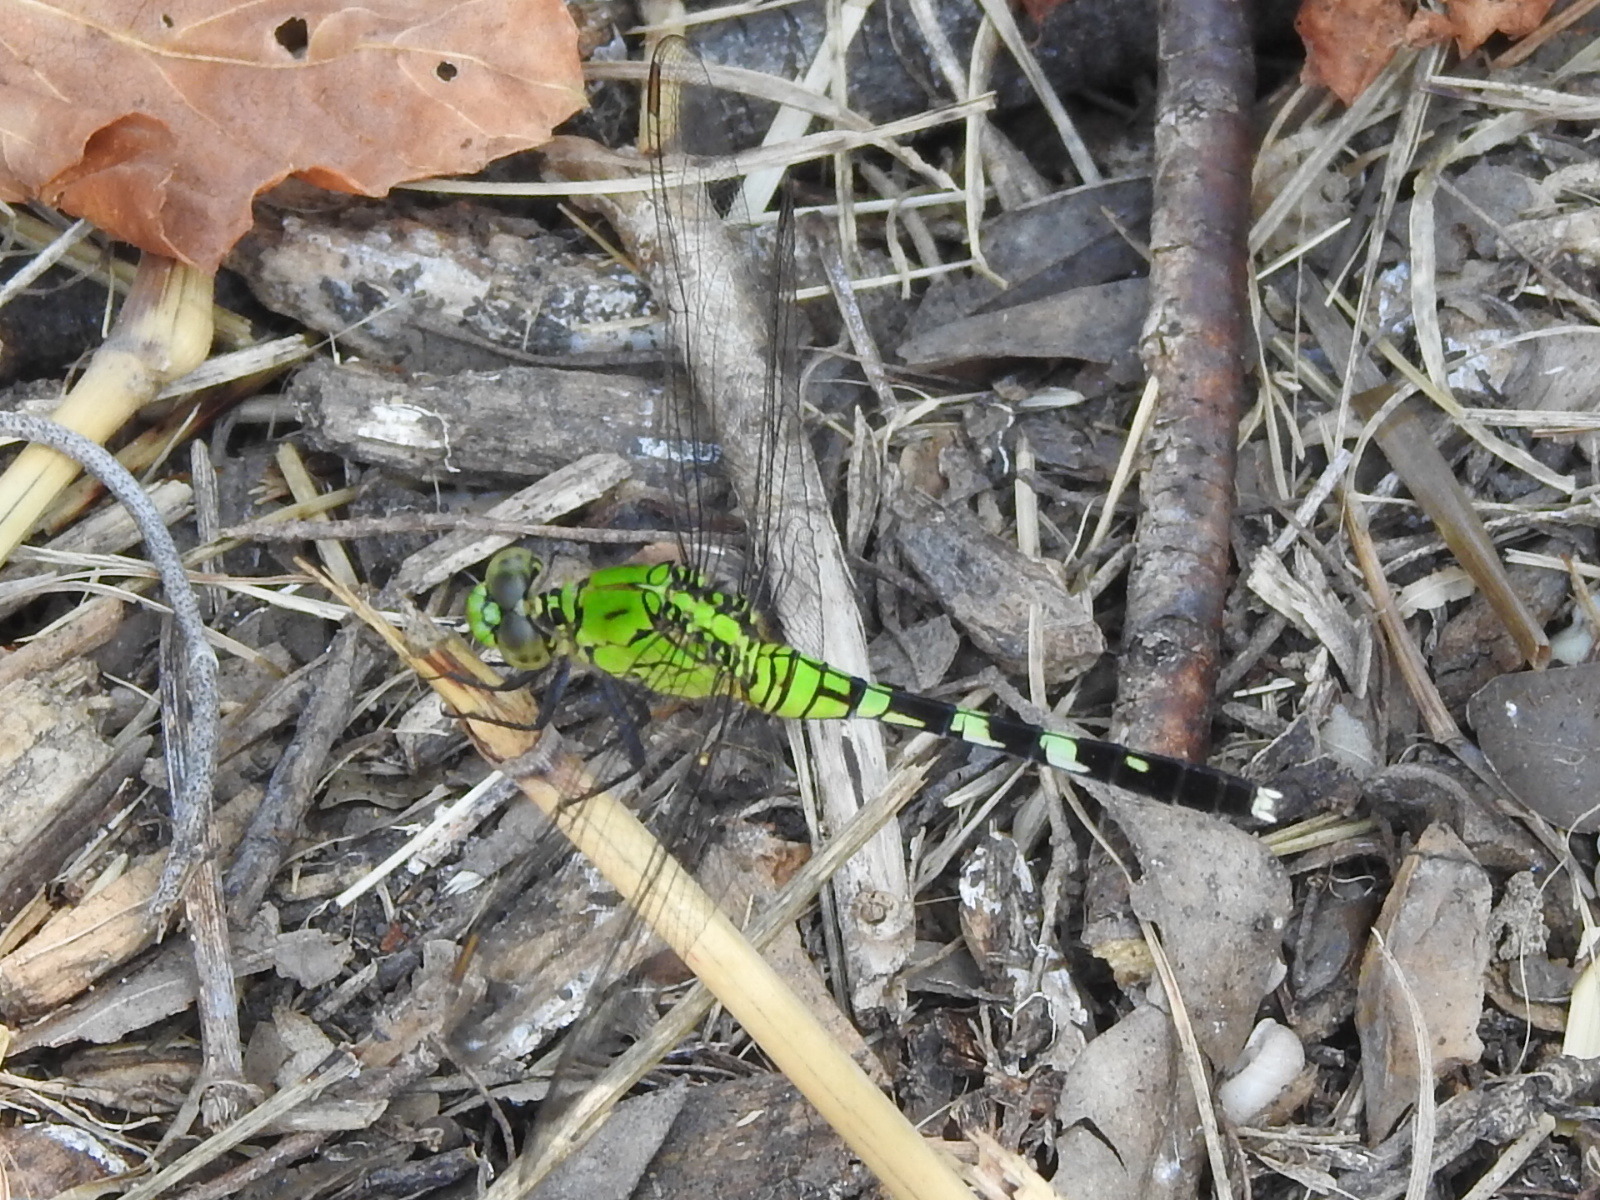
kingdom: Animalia
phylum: Arthropoda
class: Insecta
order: Odonata
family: Libellulidae
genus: Erythemis
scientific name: Erythemis simplicicollis
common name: Eastern pondhawk
